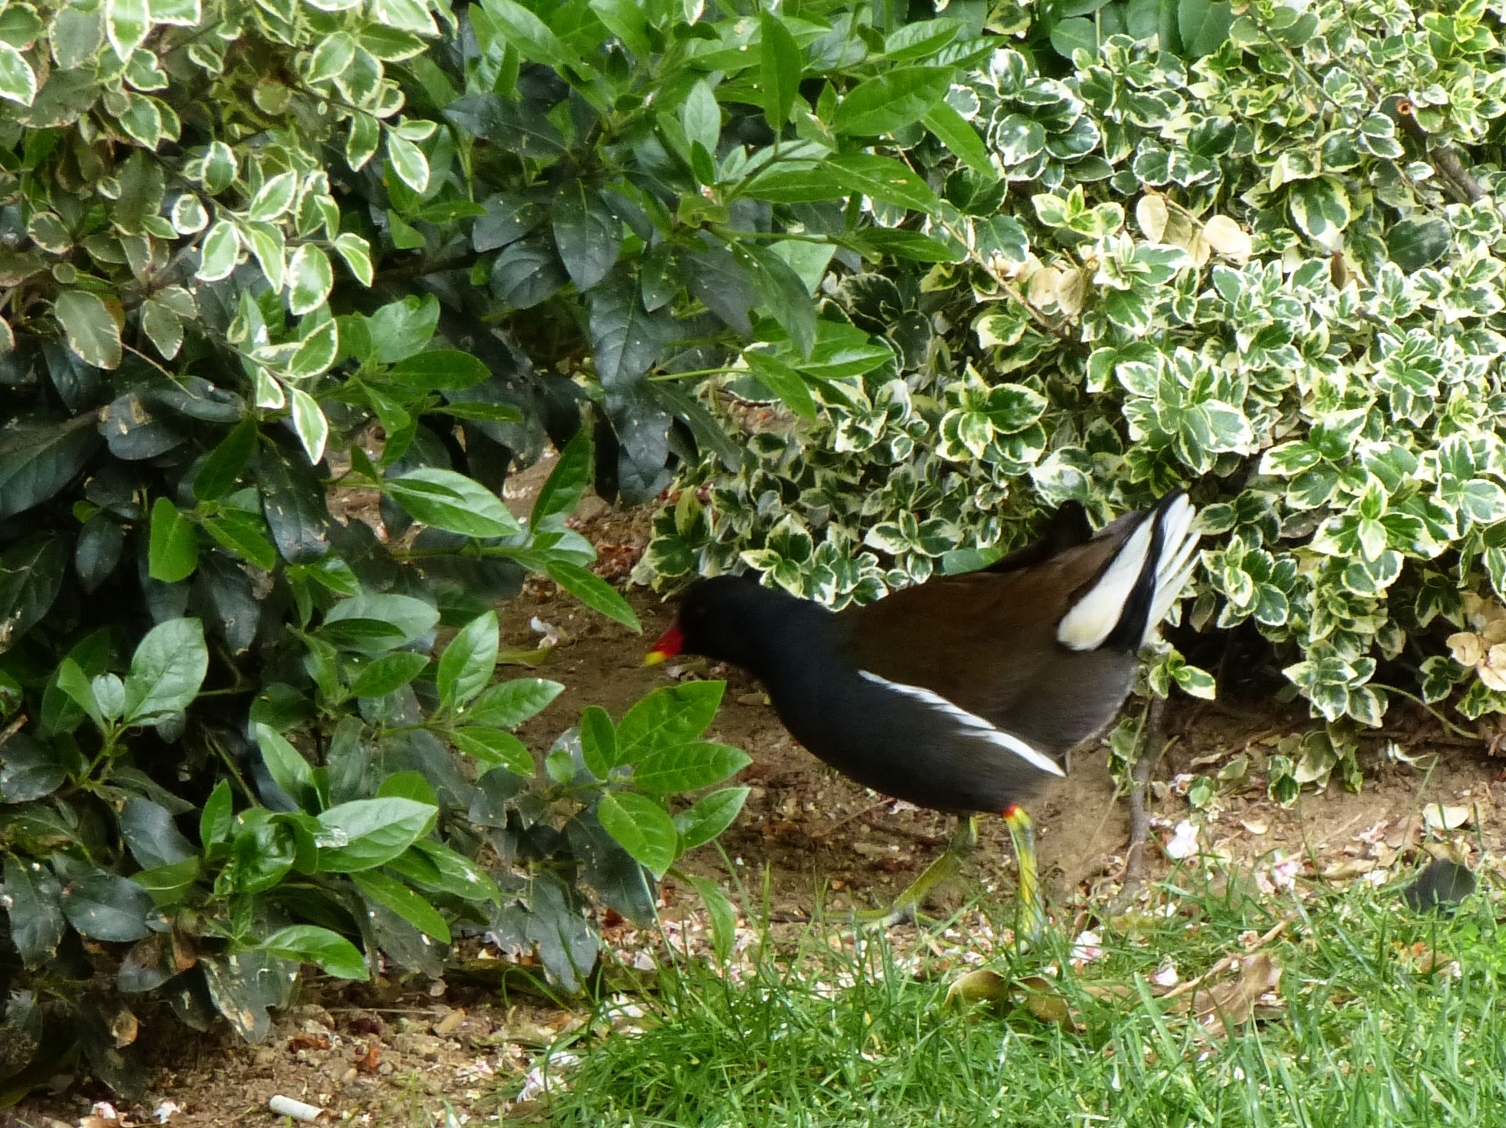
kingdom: Animalia
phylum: Chordata
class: Aves
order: Gruiformes
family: Rallidae
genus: Gallinula
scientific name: Gallinula chloropus
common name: Common moorhen
